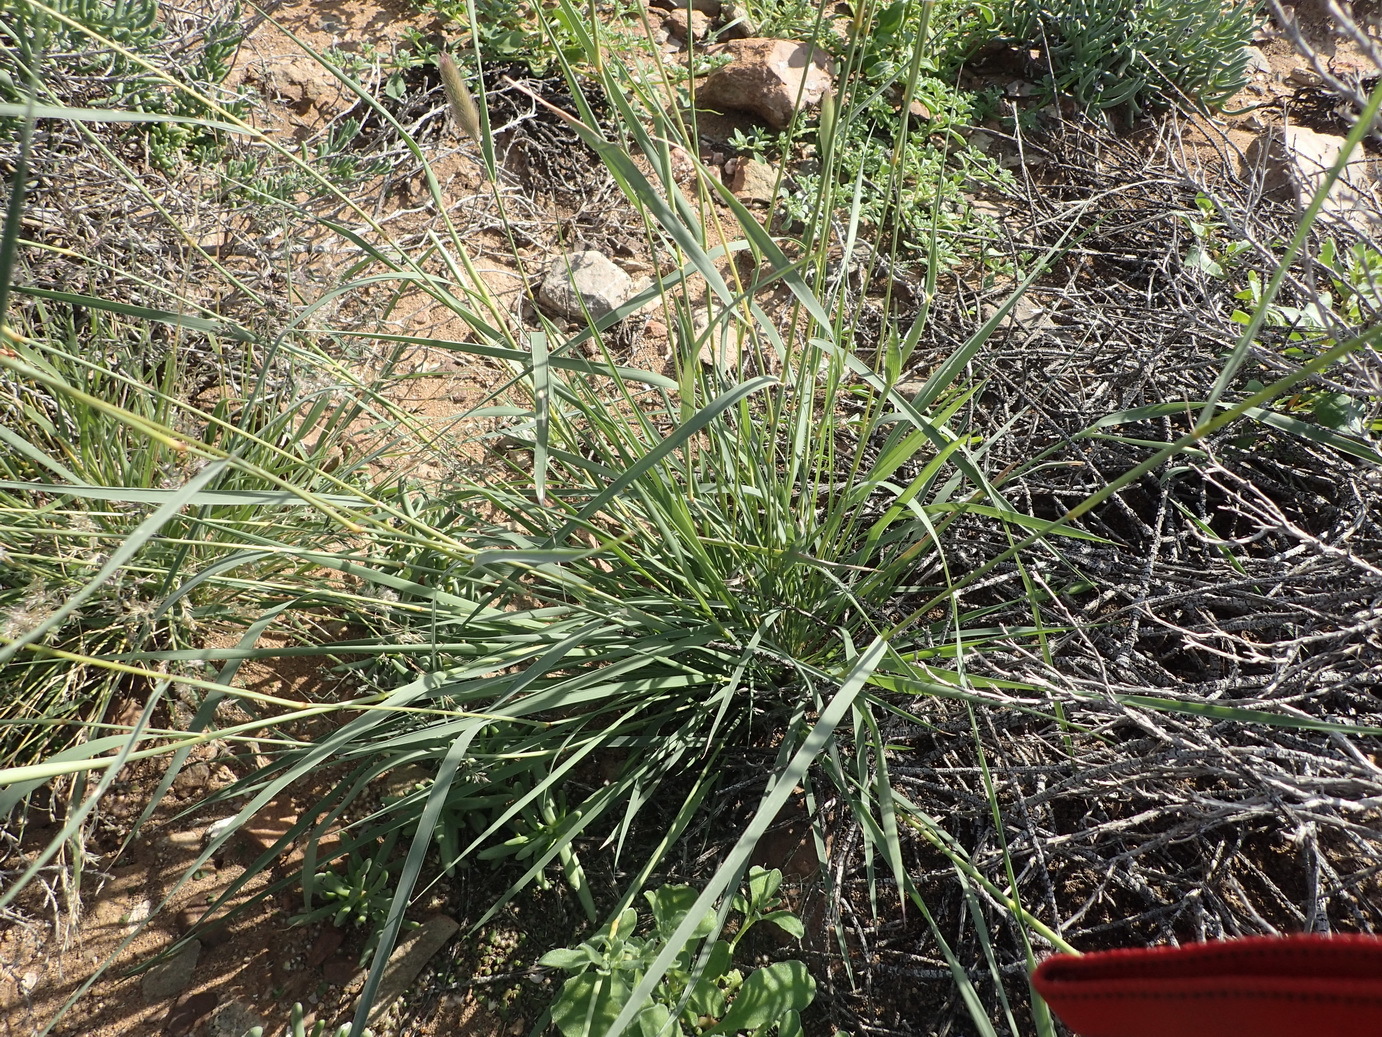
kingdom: Plantae
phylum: Tracheophyta
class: Liliopsida
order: Poales
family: Poaceae
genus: Fingerhuthia
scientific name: Fingerhuthia africana
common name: Zulu fescue
